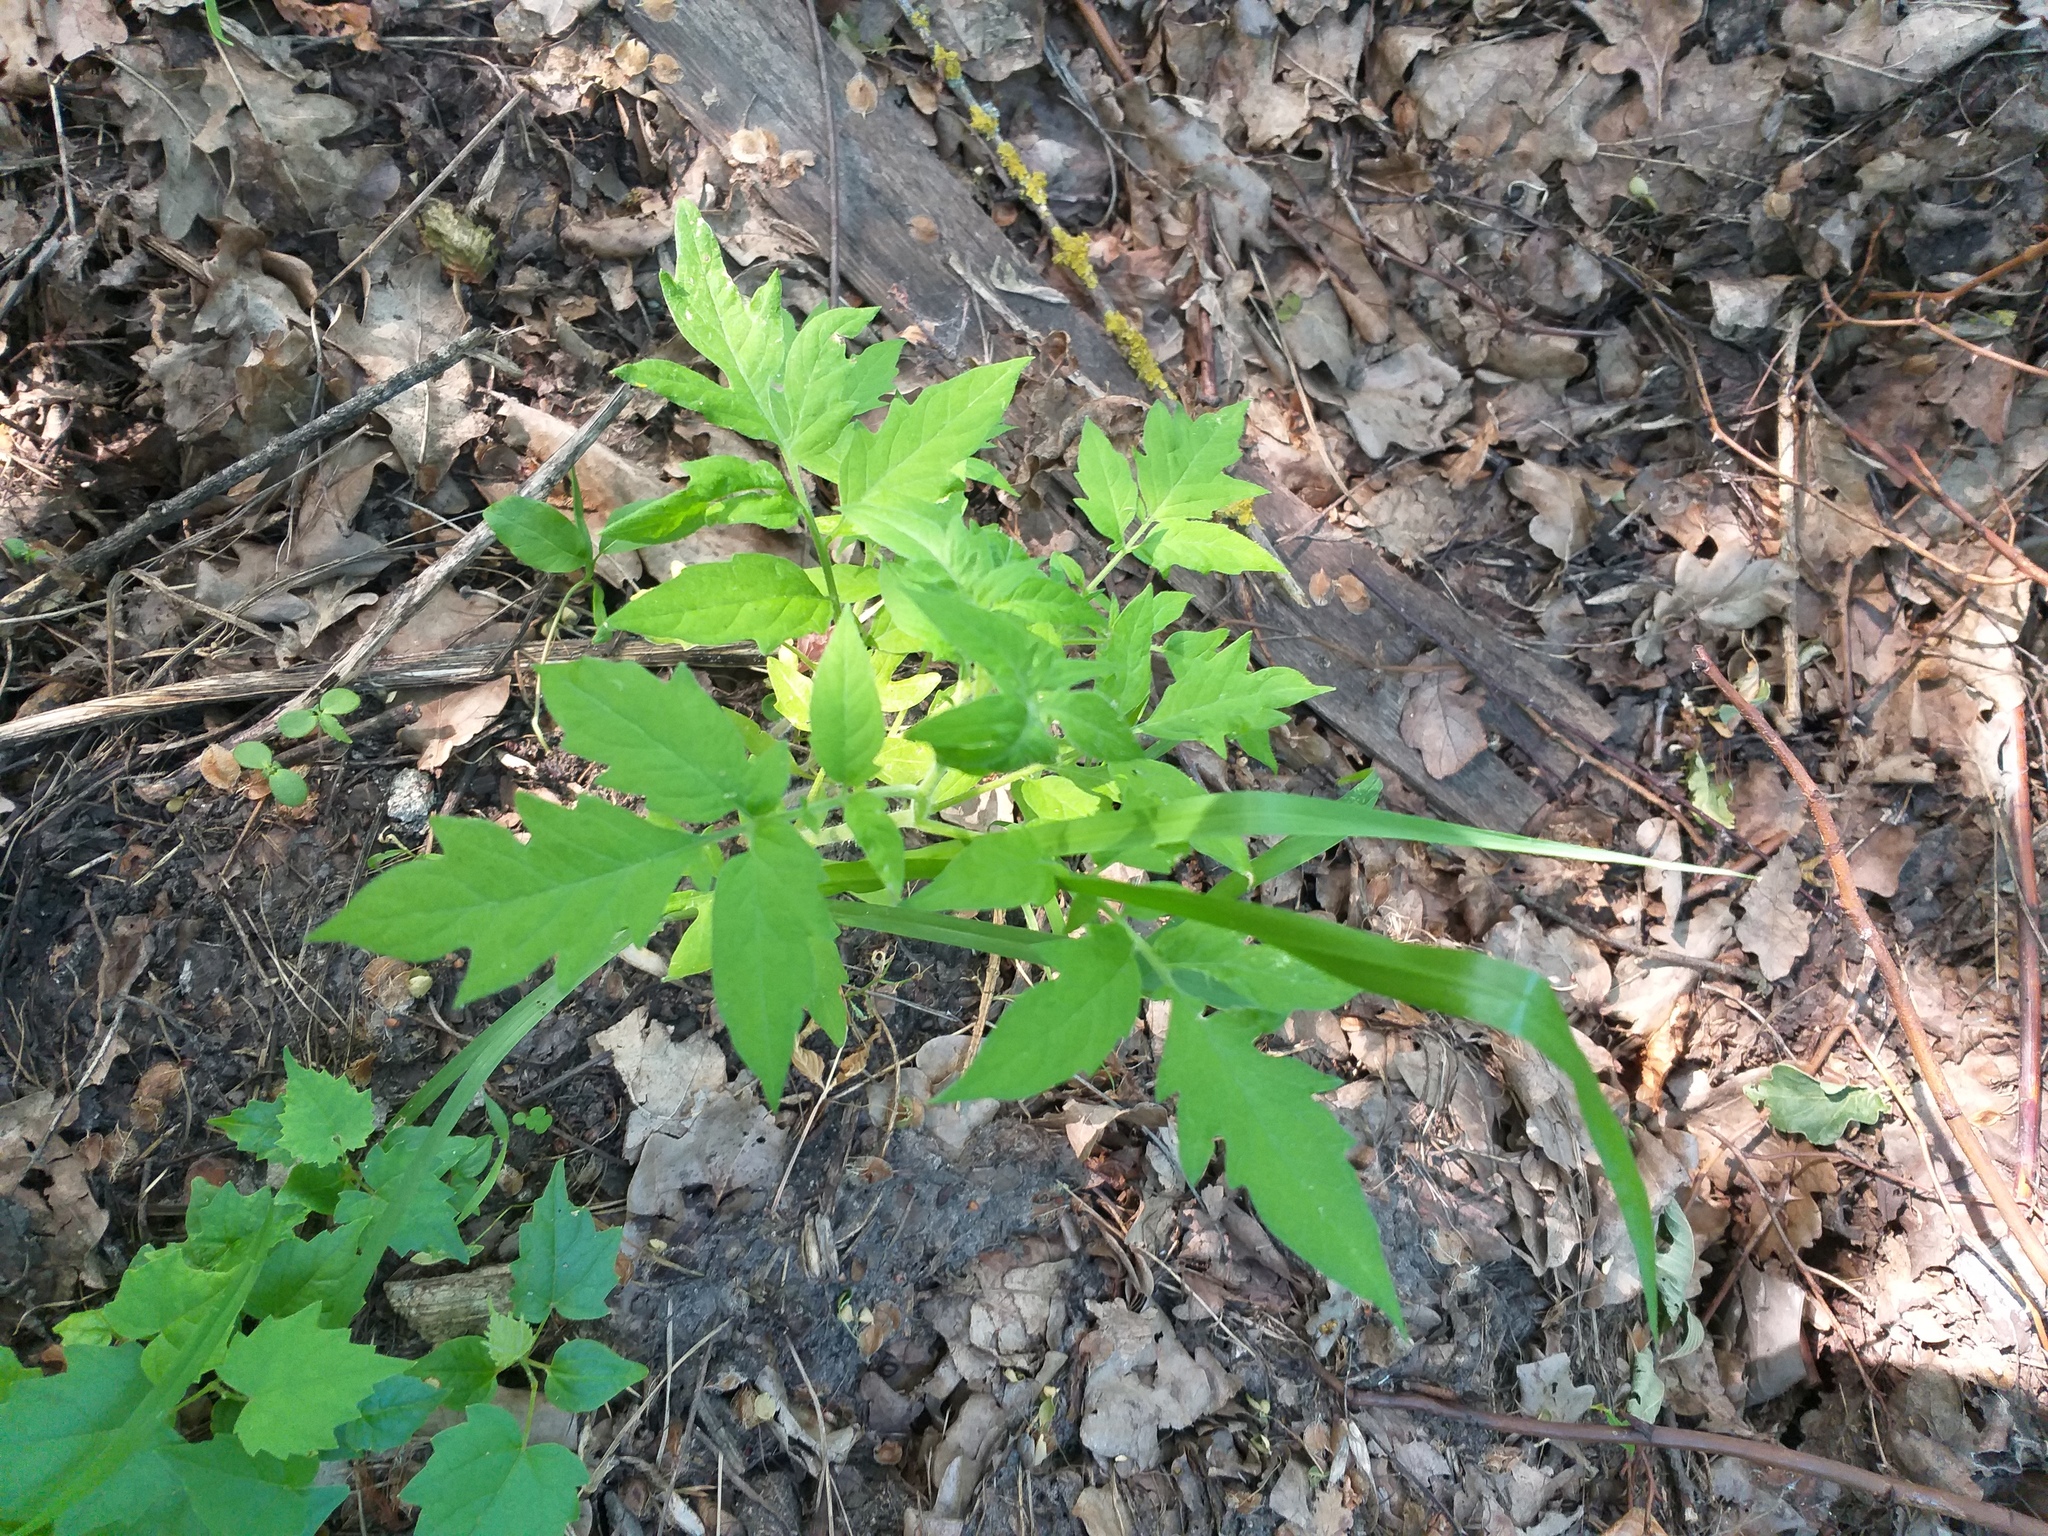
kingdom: Plantae
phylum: Tracheophyta
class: Magnoliopsida
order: Solanales
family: Solanaceae
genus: Solanum
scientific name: Solanum lycopersicum
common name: Garden tomato
